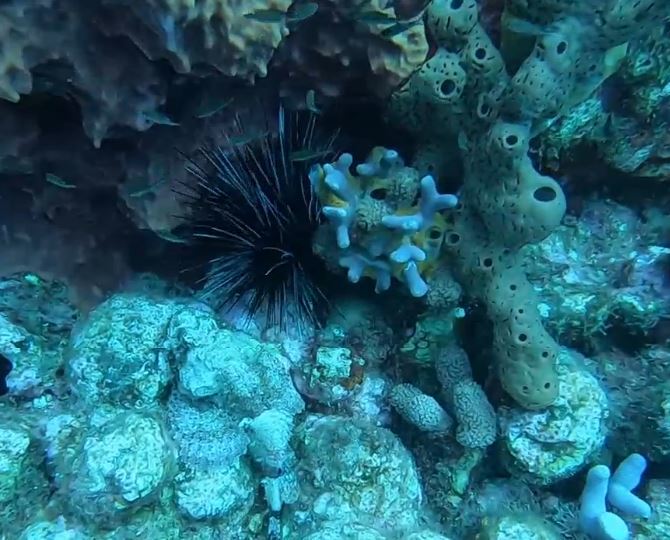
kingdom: Animalia
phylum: Echinodermata
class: Echinoidea
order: Diadematoida
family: Diadematidae
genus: Diadema
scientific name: Diadema antillarum
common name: Spiny urchin
